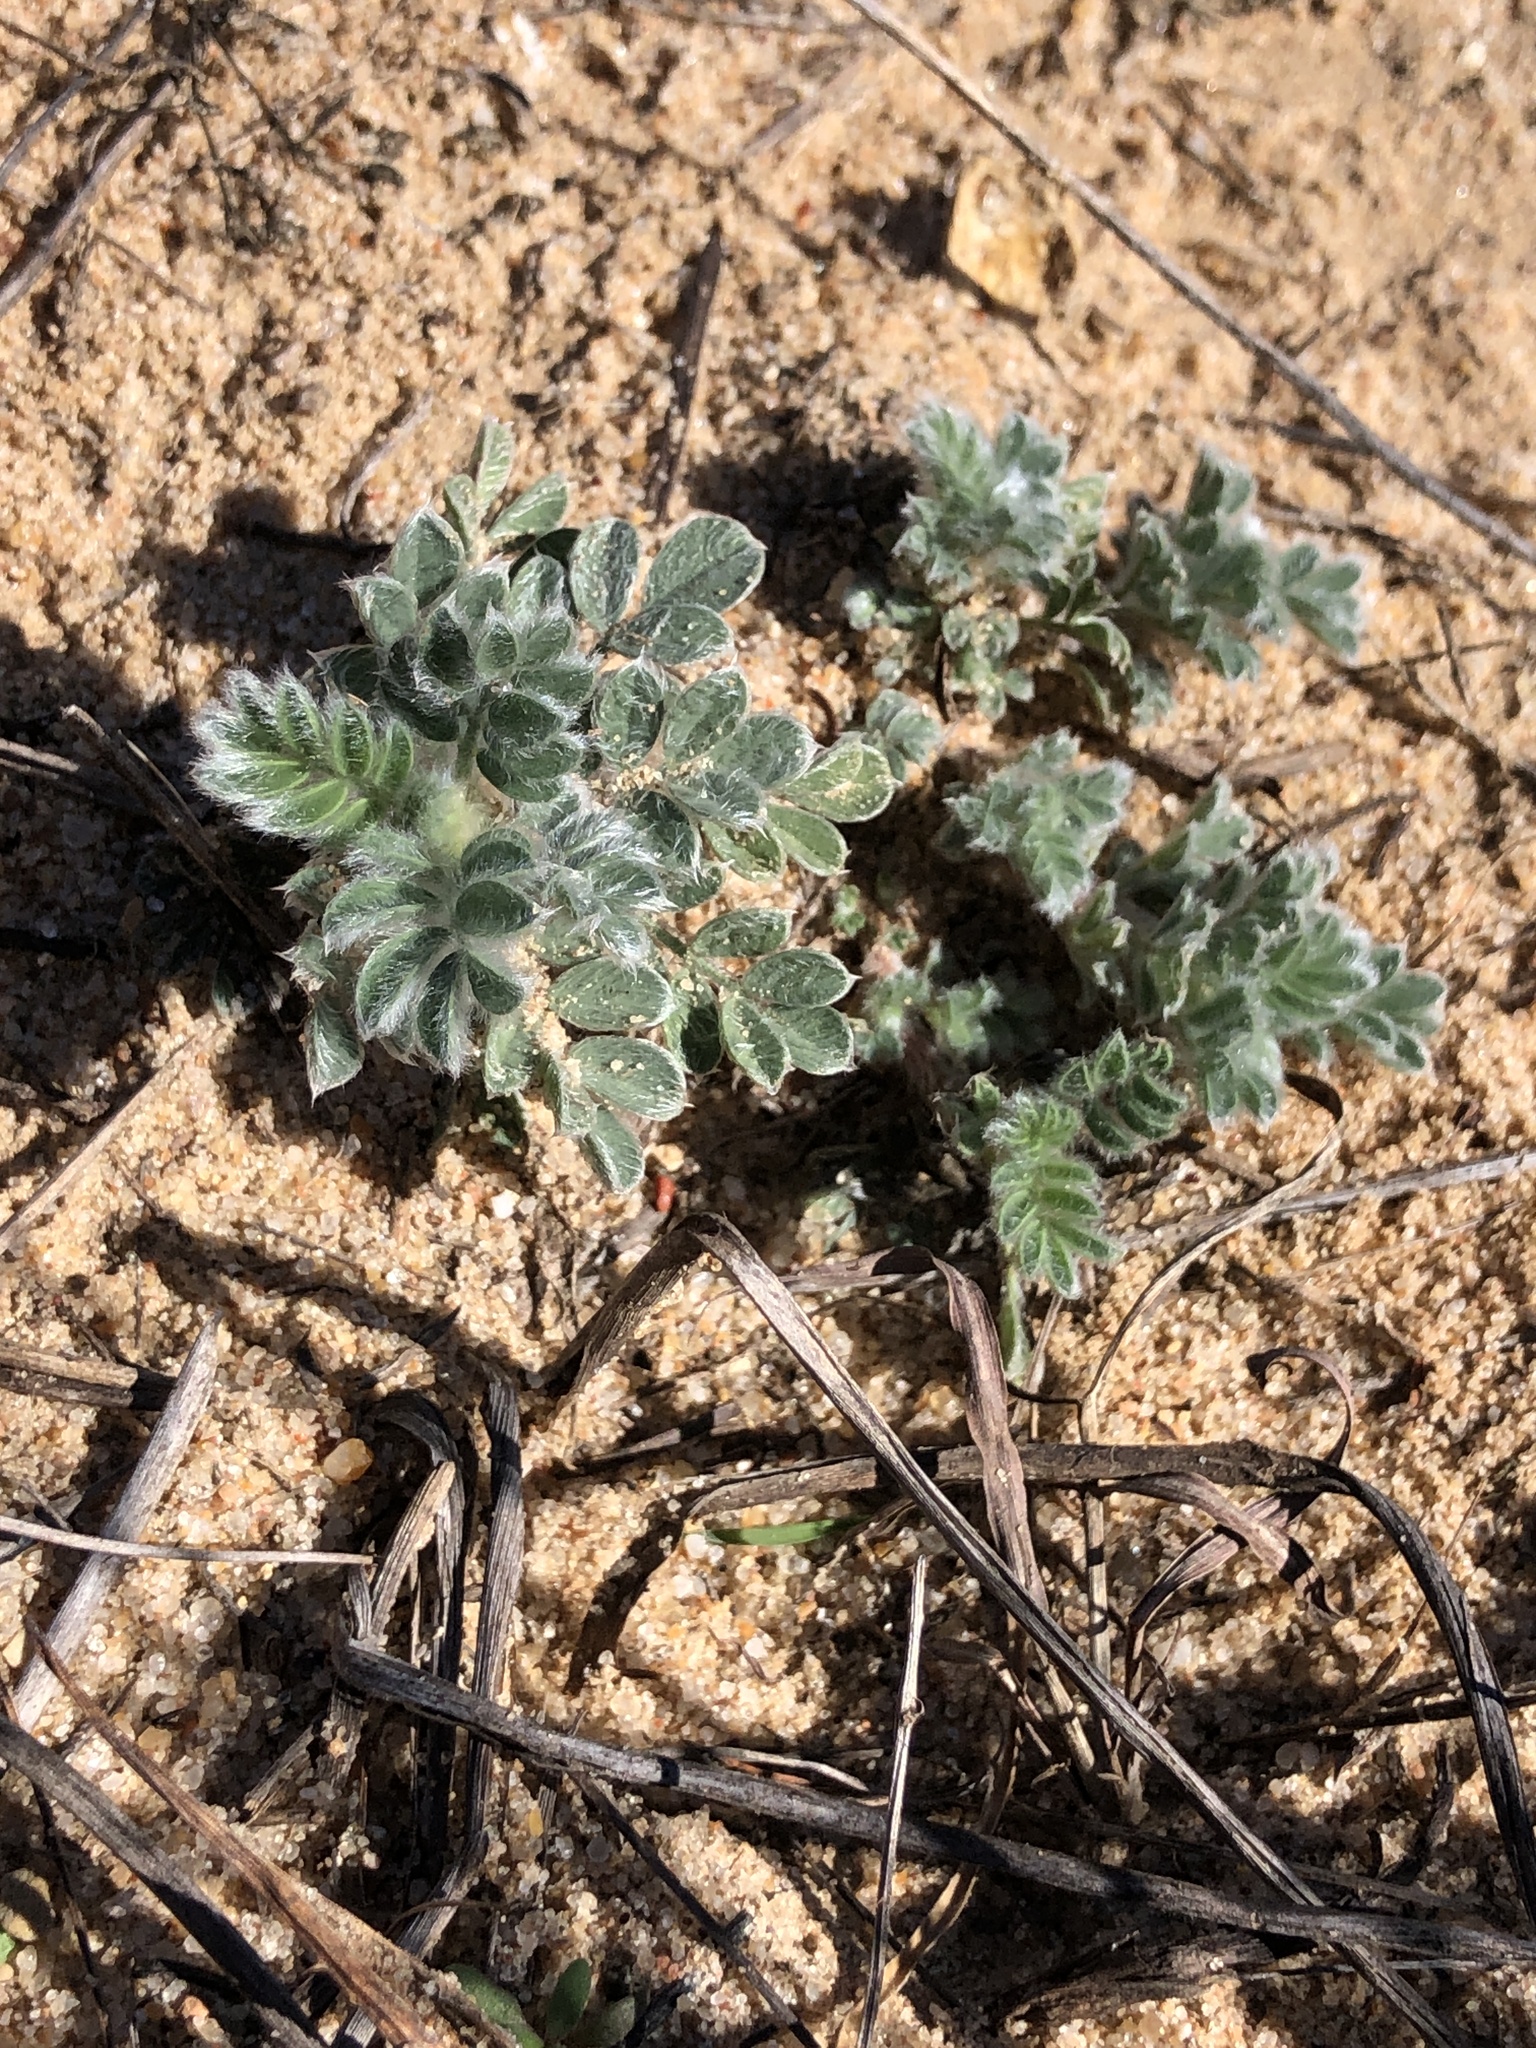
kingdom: Plantae
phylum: Tracheophyta
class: Magnoliopsida
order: Fabales
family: Fabaceae
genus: Dalea
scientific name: Dalea obovata
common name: Pussyfoot
